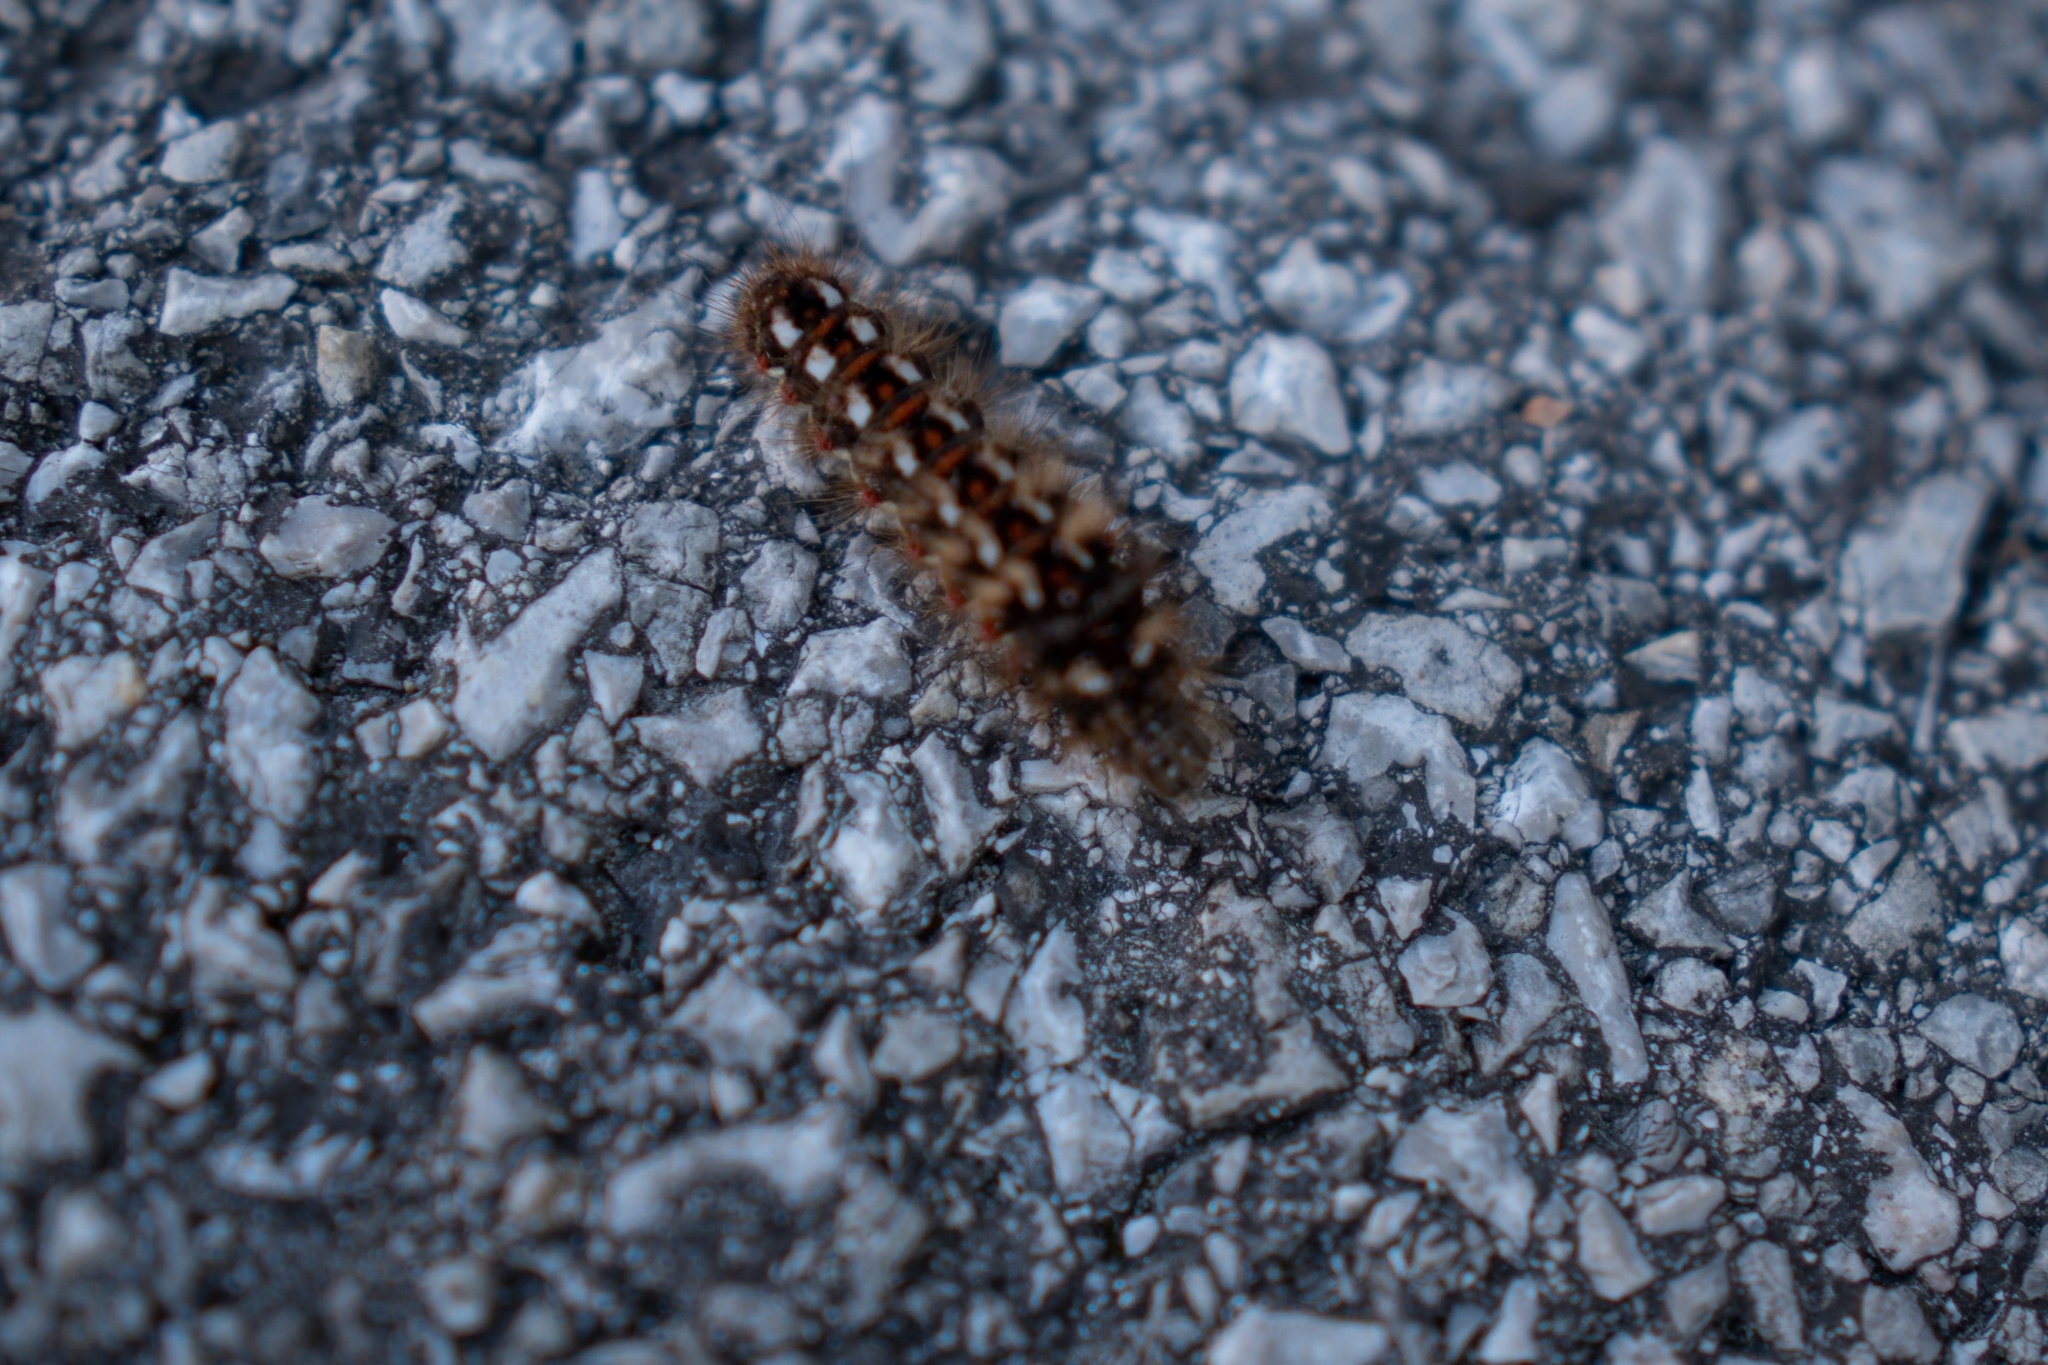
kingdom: Animalia
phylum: Arthropoda
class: Insecta
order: Lepidoptera
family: Noctuidae
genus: Acronicta
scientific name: Acronicta rumicis
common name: Knot grass
